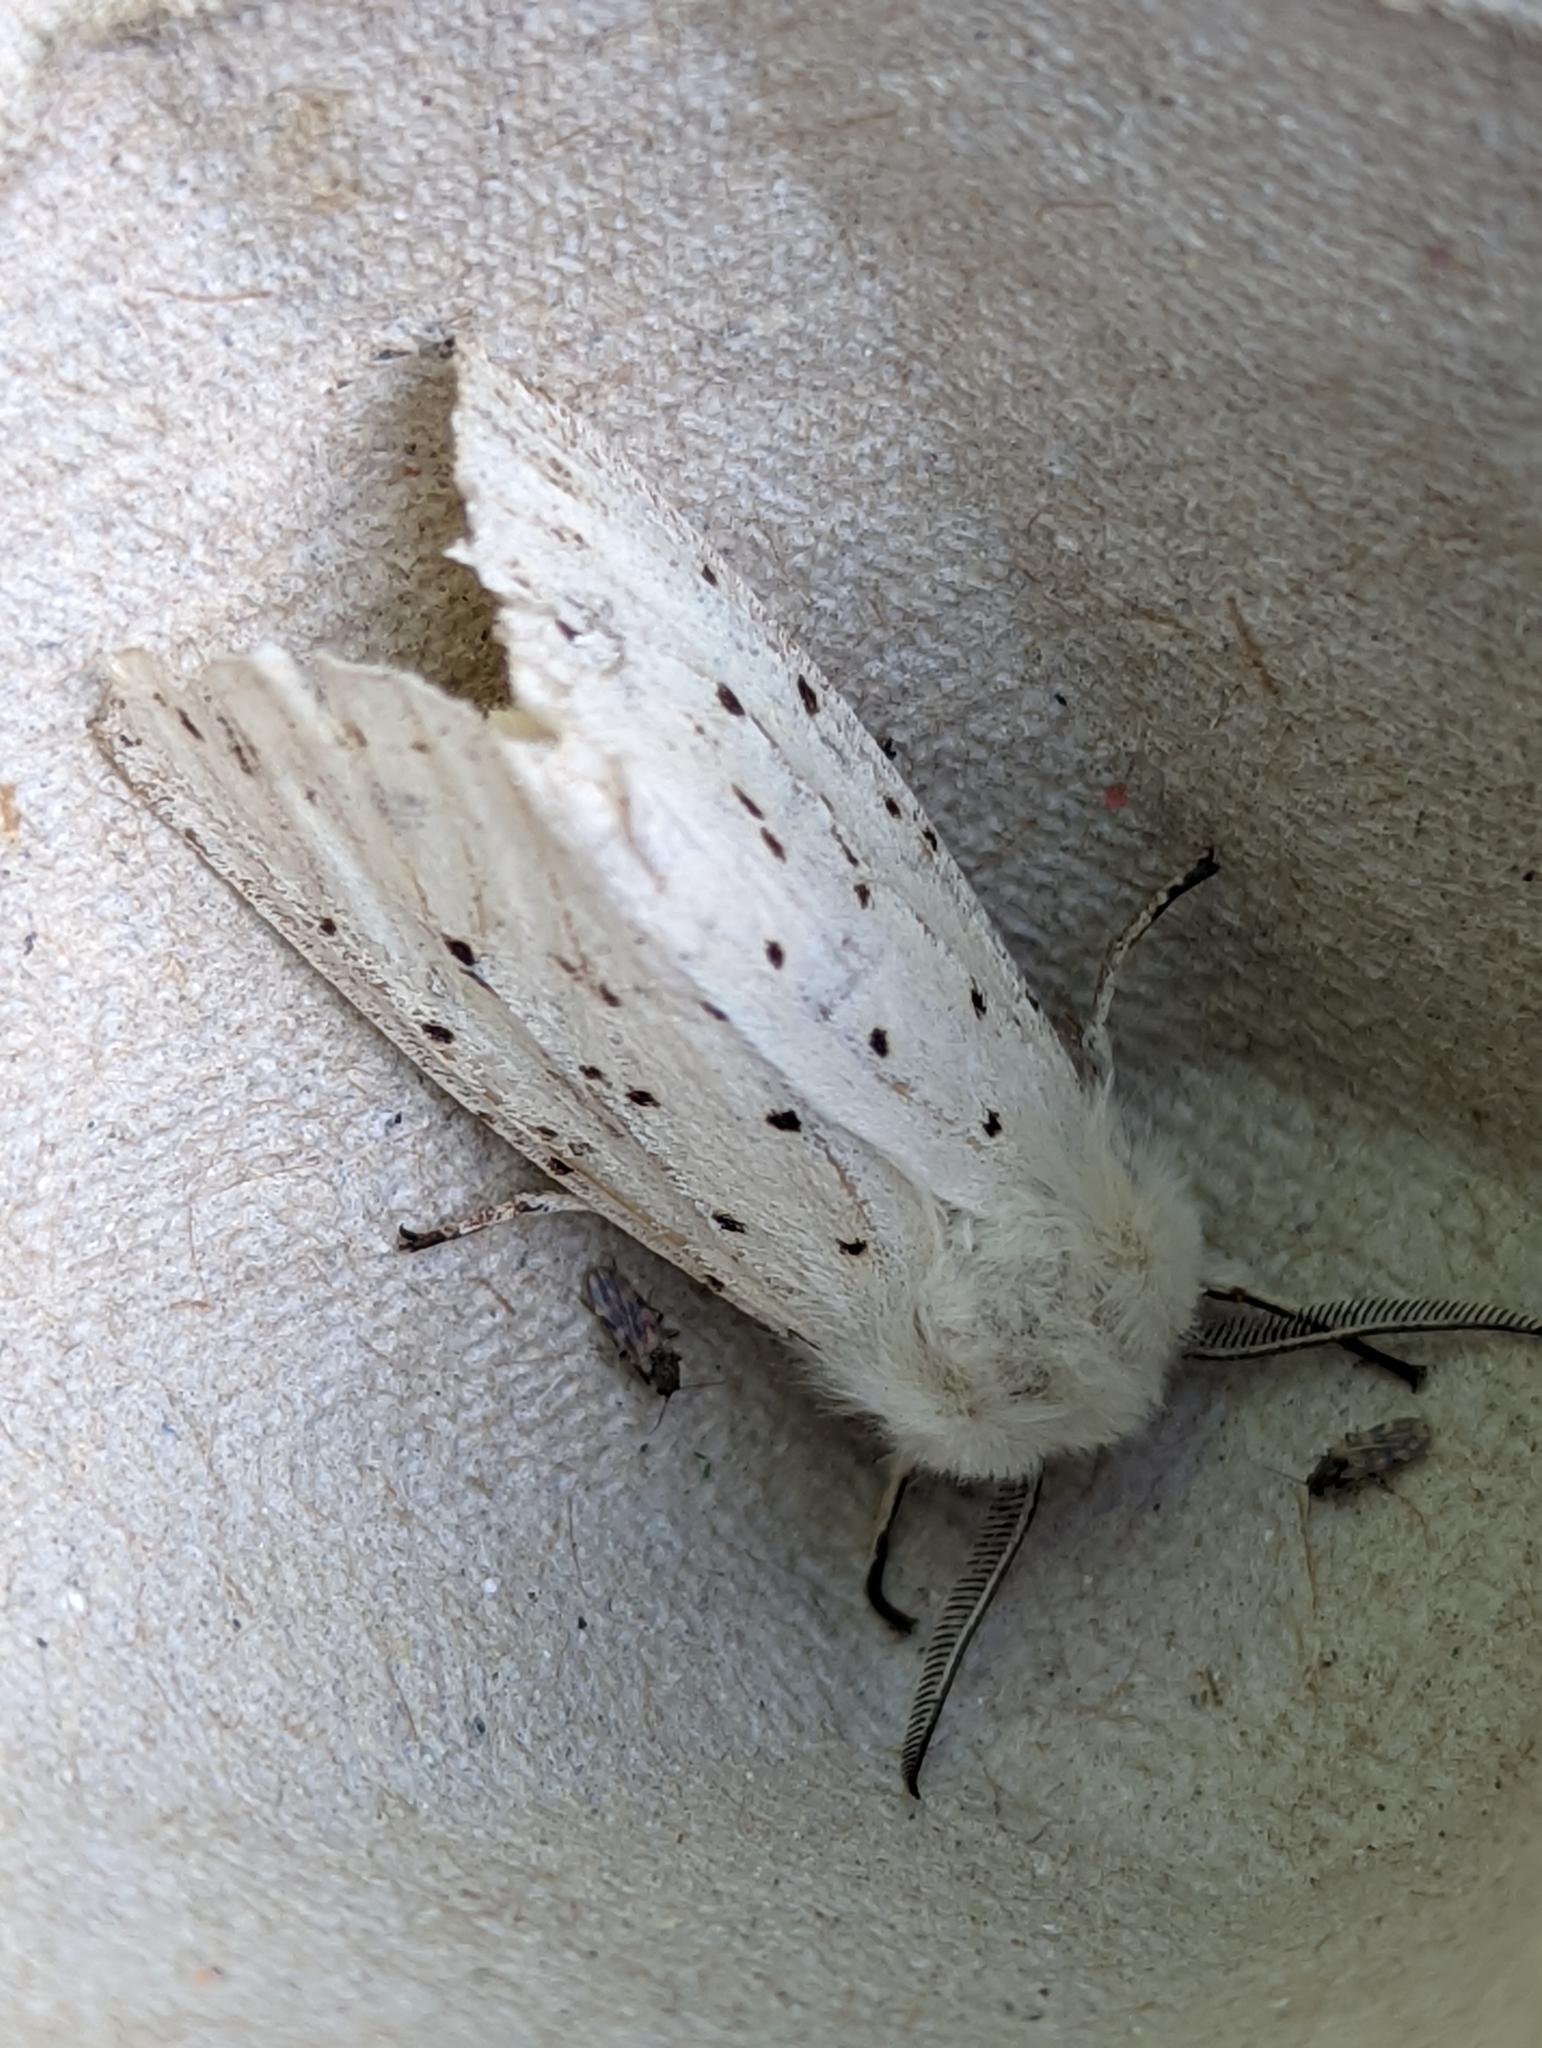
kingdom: Animalia
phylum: Arthropoda
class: Insecta
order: Lepidoptera
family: Erebidae
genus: Spilosoma
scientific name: Spilosoma lubricipeda
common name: White ermine
